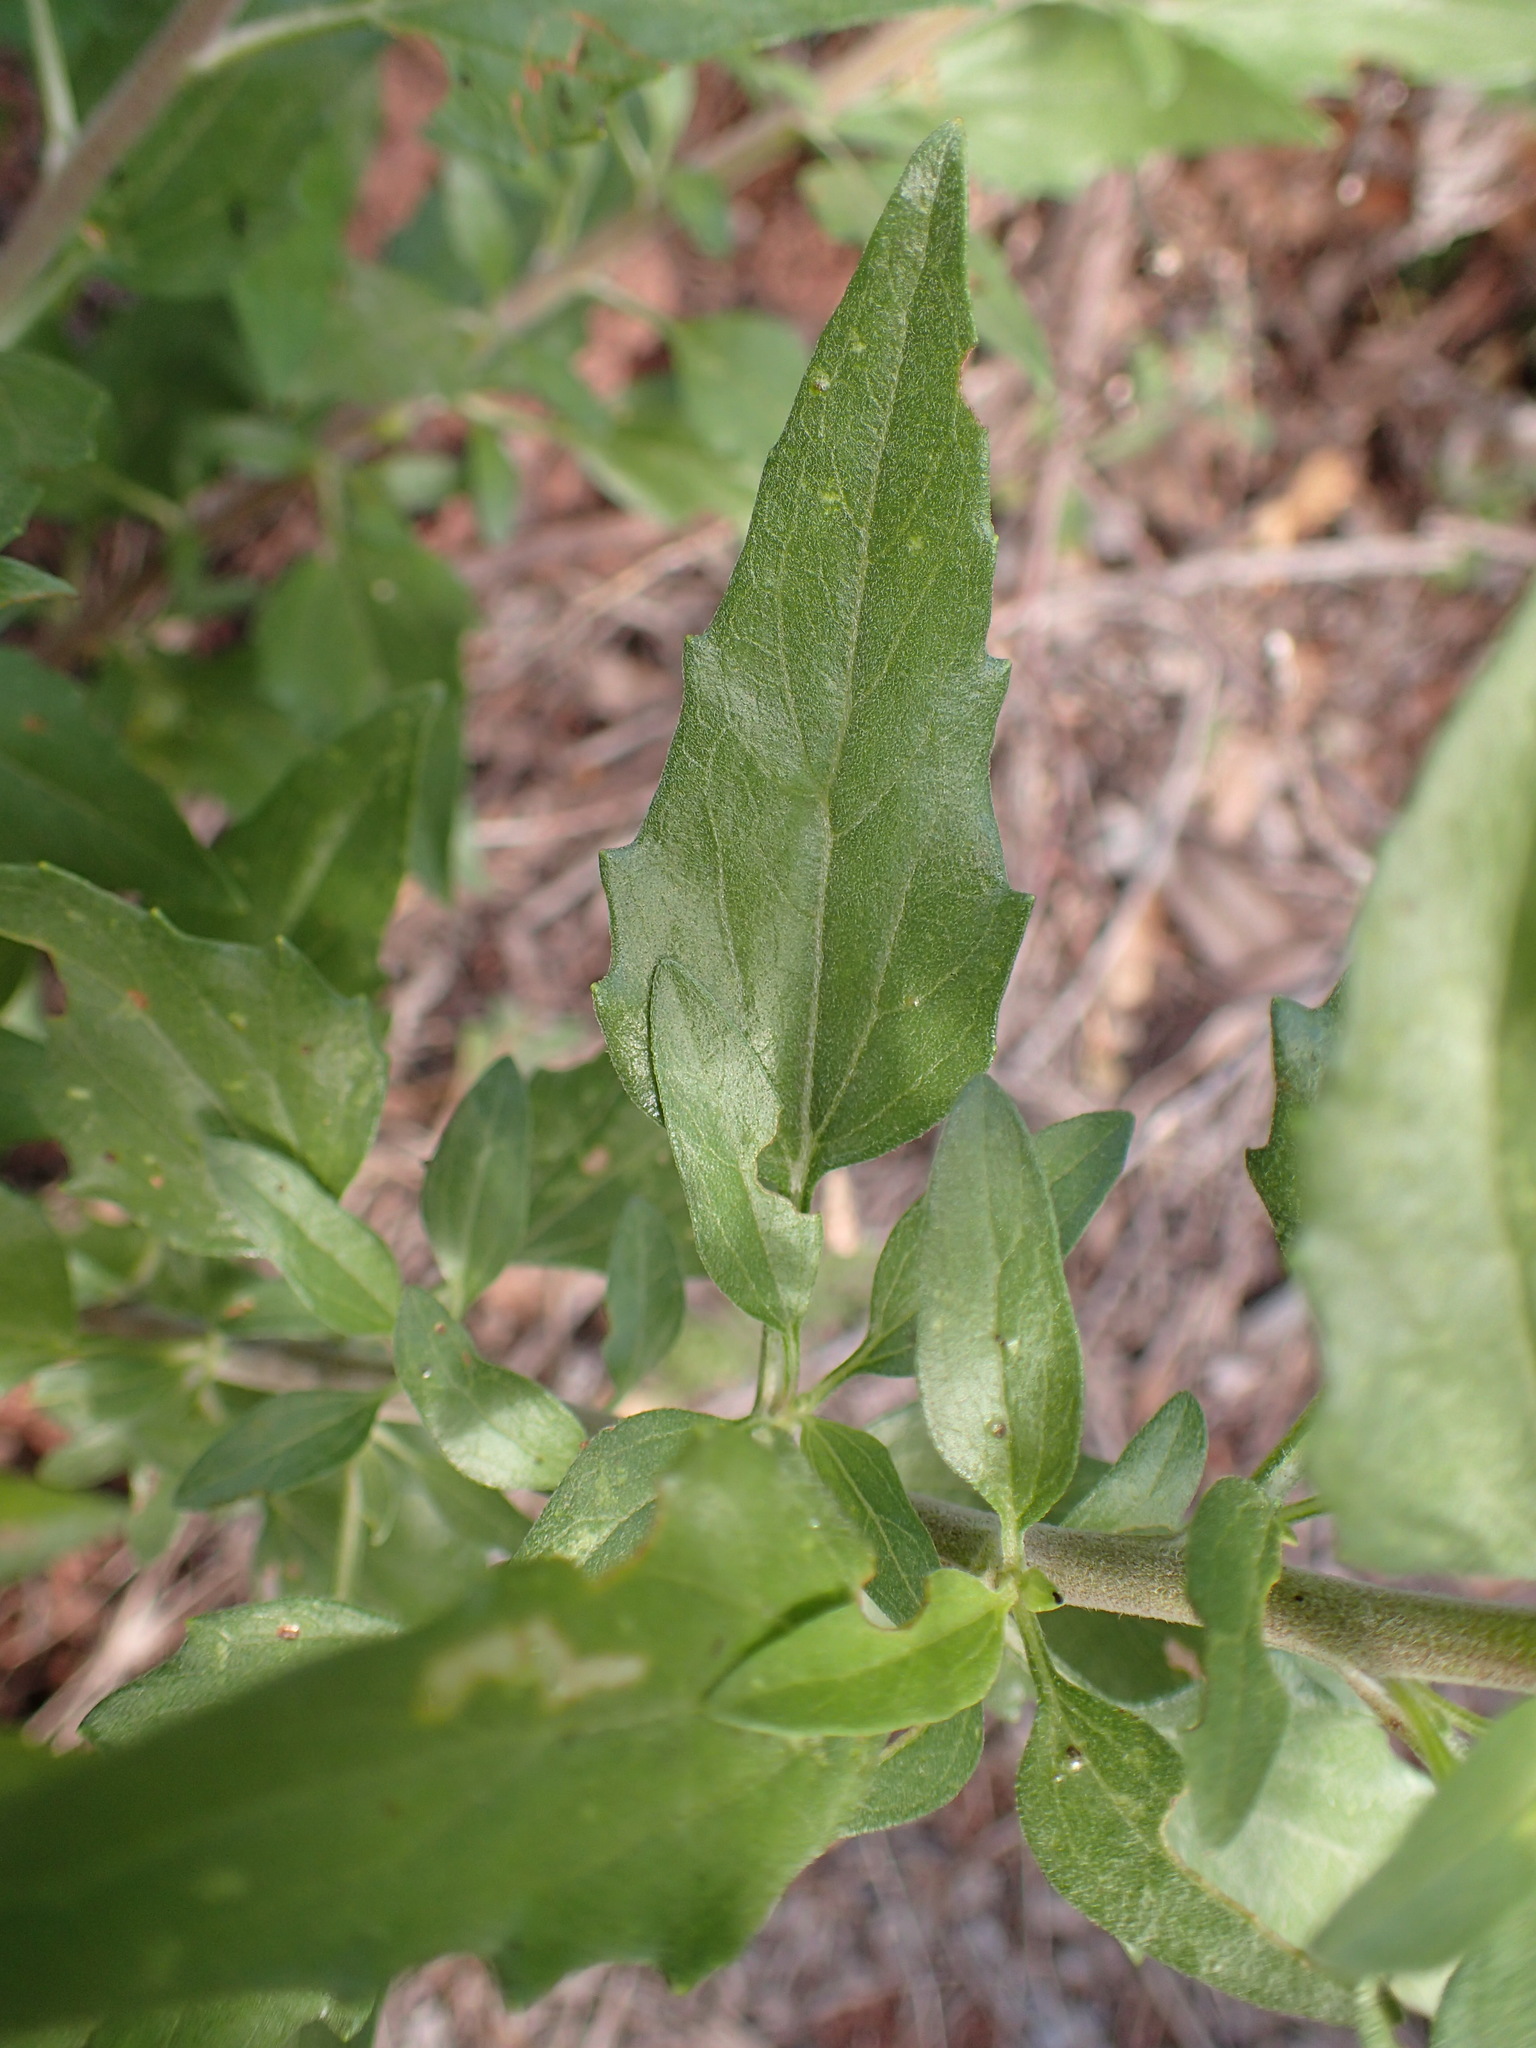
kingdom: Plantae
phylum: Tracheophyta
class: Magnoliopsida
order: Asterales
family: Asteraceae
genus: Encelia
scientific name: Encelia californica
